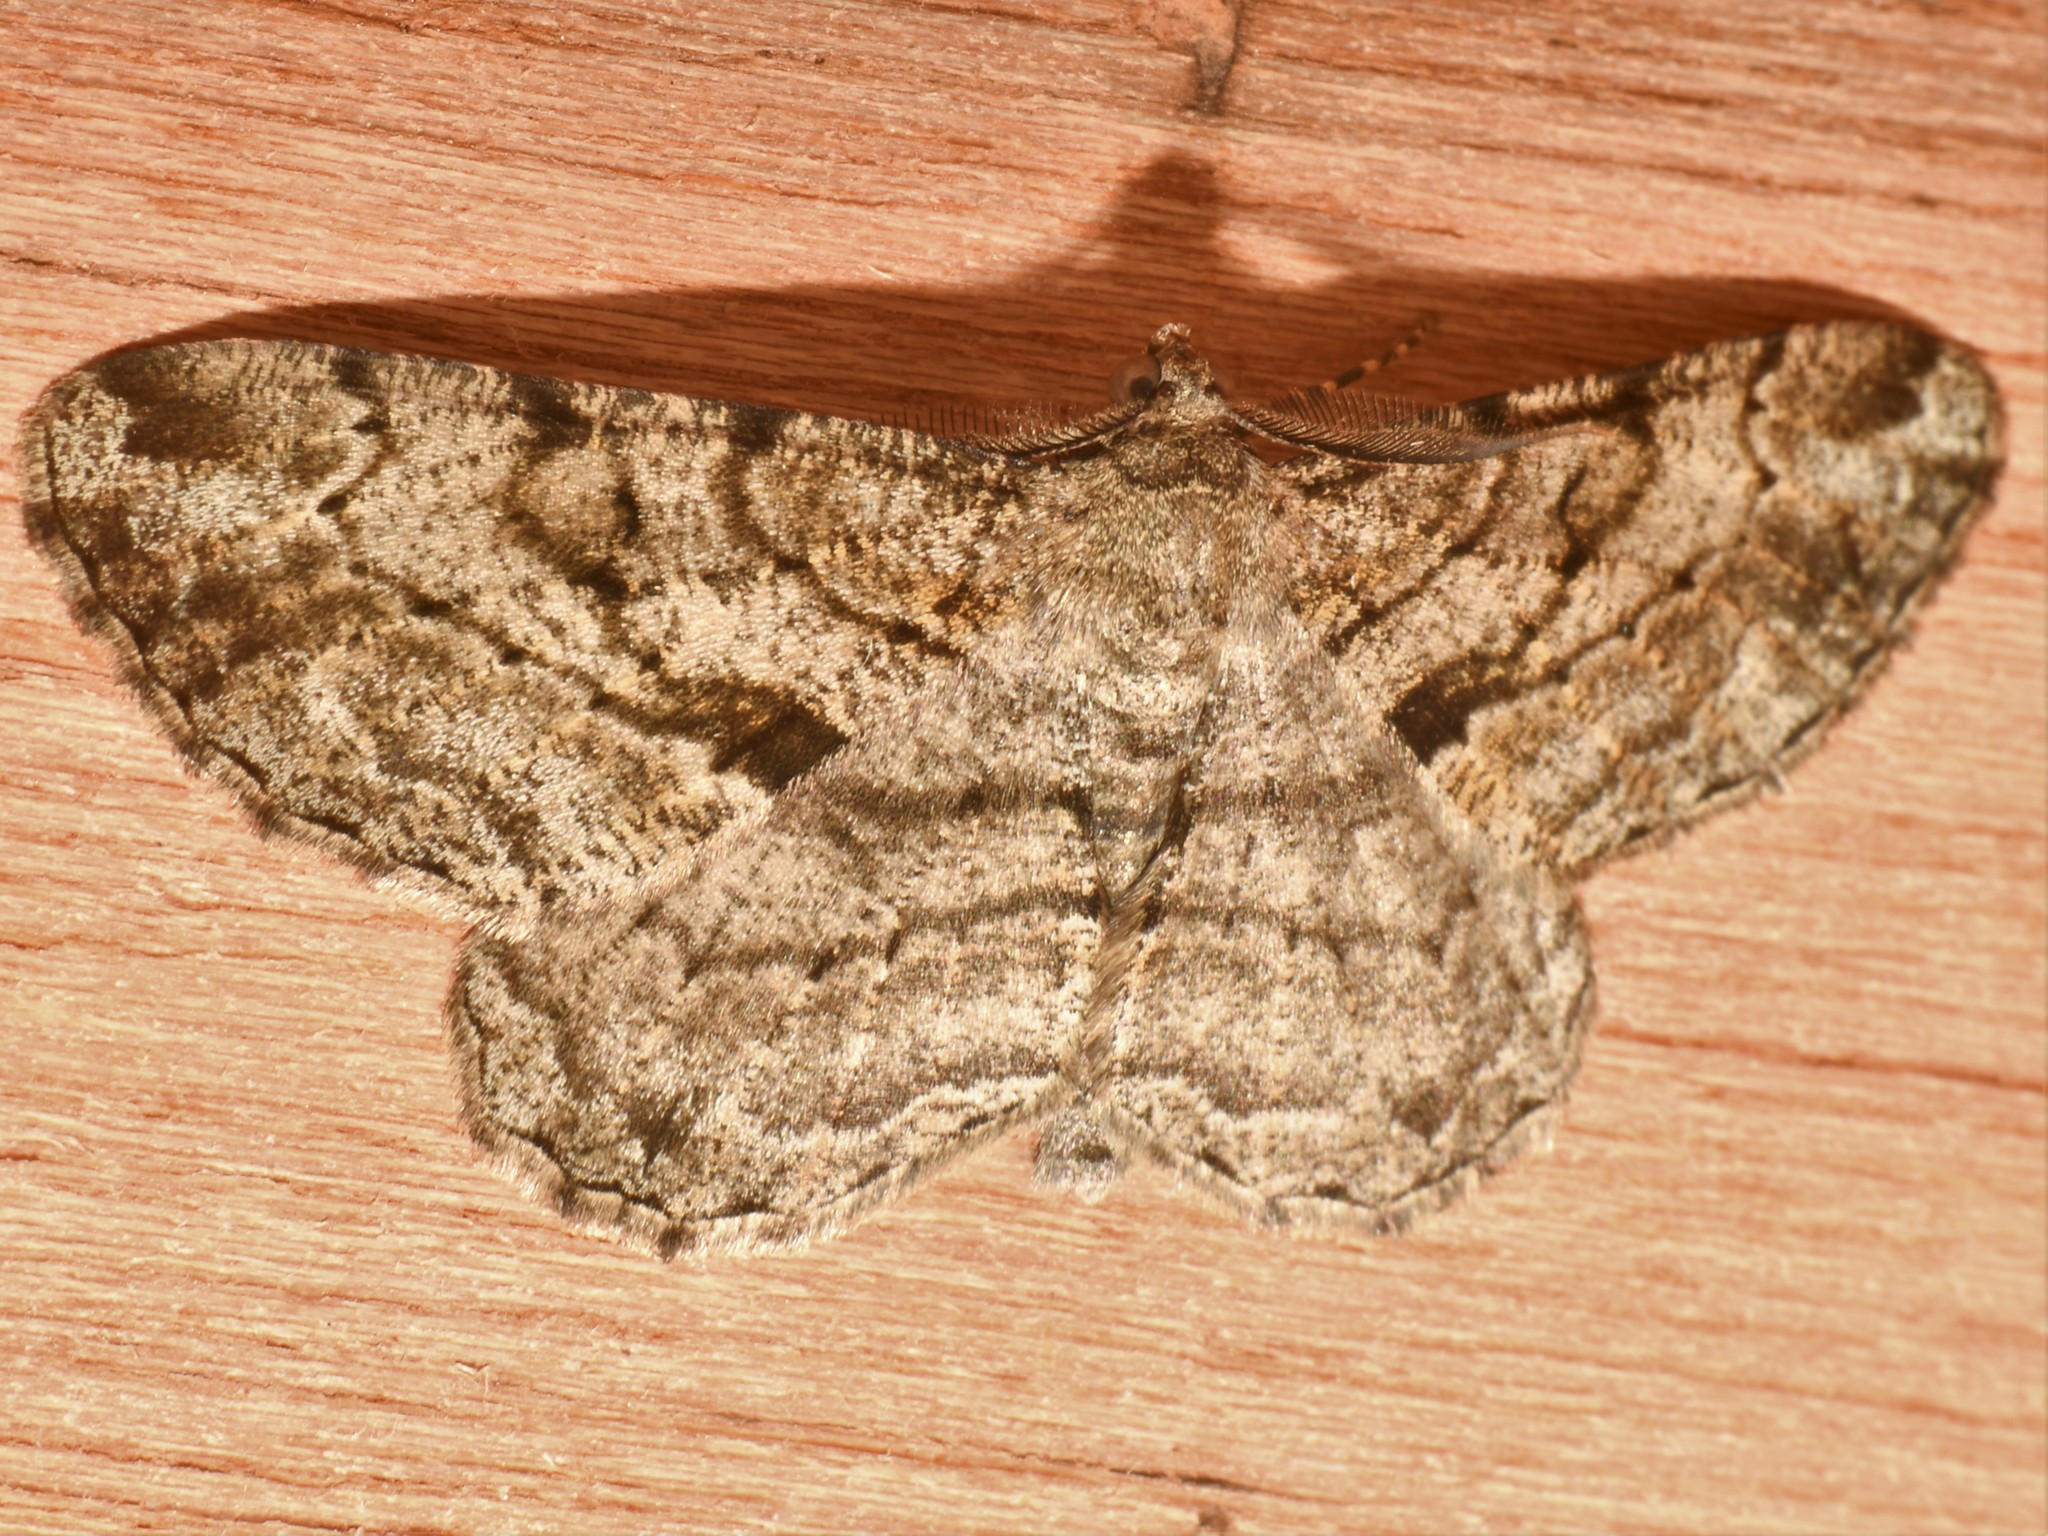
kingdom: Animalia
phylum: Arthropoda
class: Insecta
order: Lepidoptera
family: Geometridae
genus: Peribatodes
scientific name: Peribatodes rhomboidaria
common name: Willow beauty
